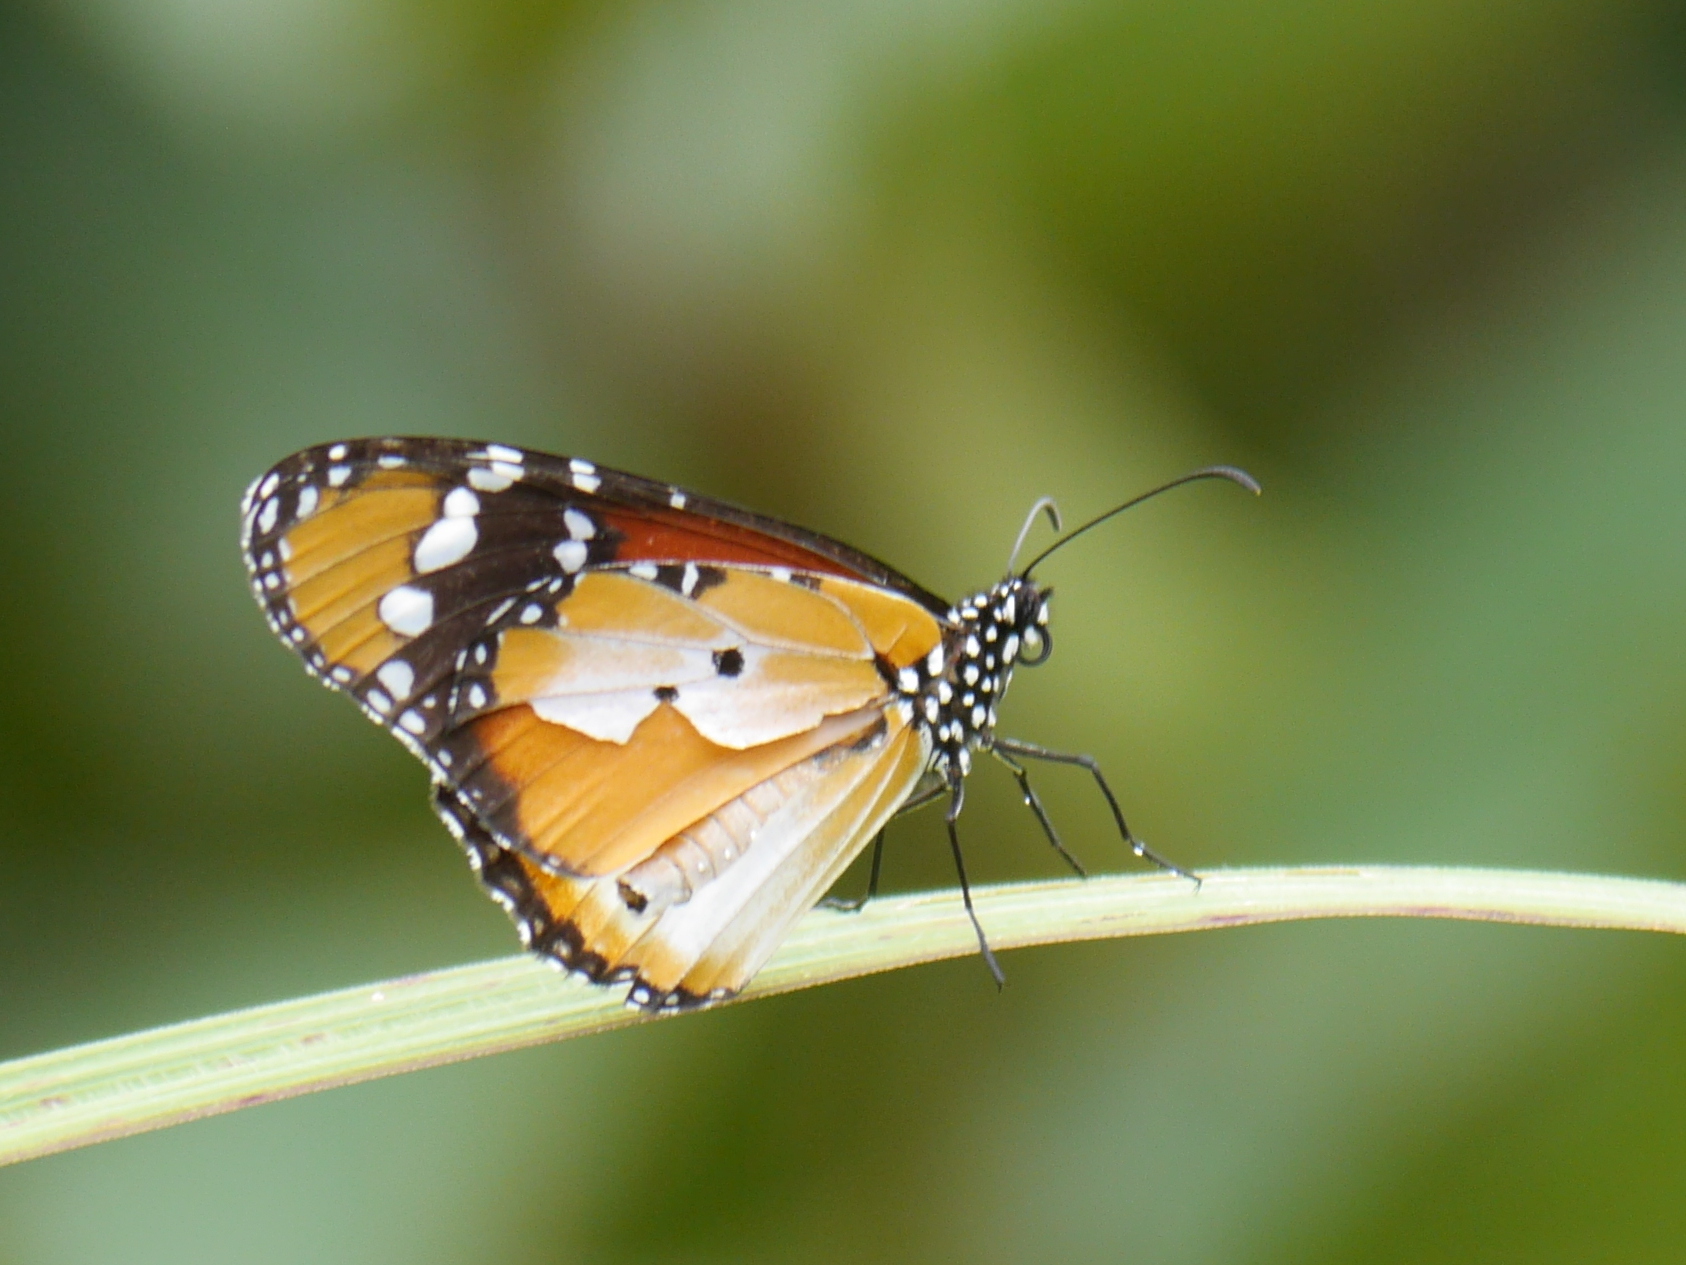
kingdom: Animalia
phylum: Arthropoda
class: Insecta
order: Lepidoptera
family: Nymphalidae
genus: Danaus
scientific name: Danaus chrysippus
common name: Plain tiger
